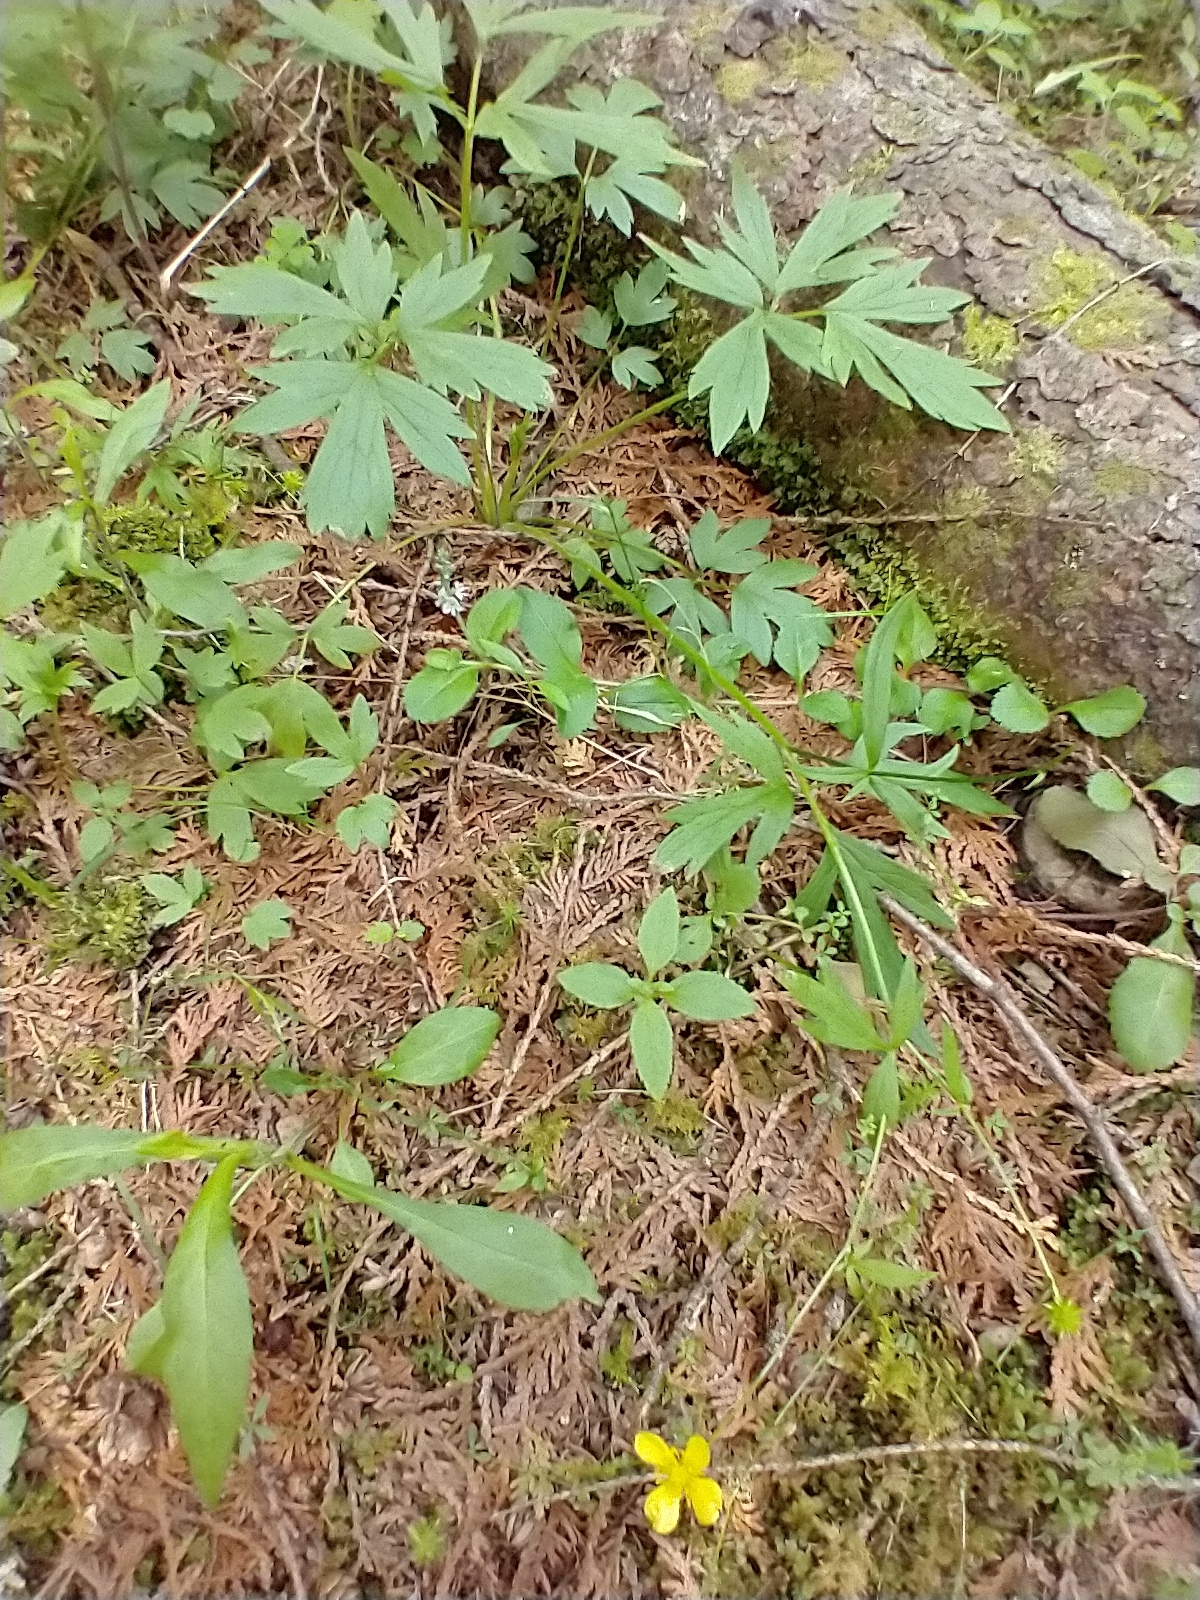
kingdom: Plantae
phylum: Tracheophyta
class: Magnoliopsida
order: Ranunculales
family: Ranunculaceae
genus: Ranunculus
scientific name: Ranunculus hispidus
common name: Bristly buttercup
